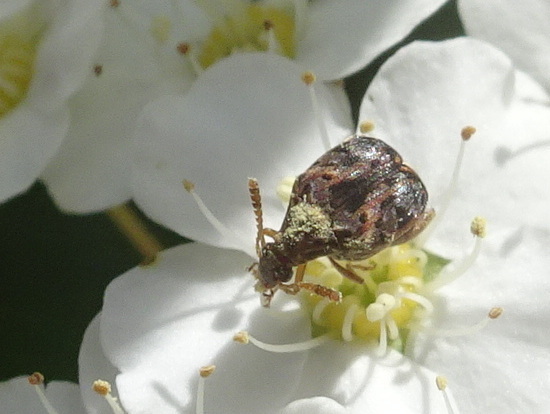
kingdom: Animalia
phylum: Arthropoda
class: Insecta
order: Coleoptera
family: Chrysomelidae
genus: Gibbobruchus
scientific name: Gibbobruchus mimus
